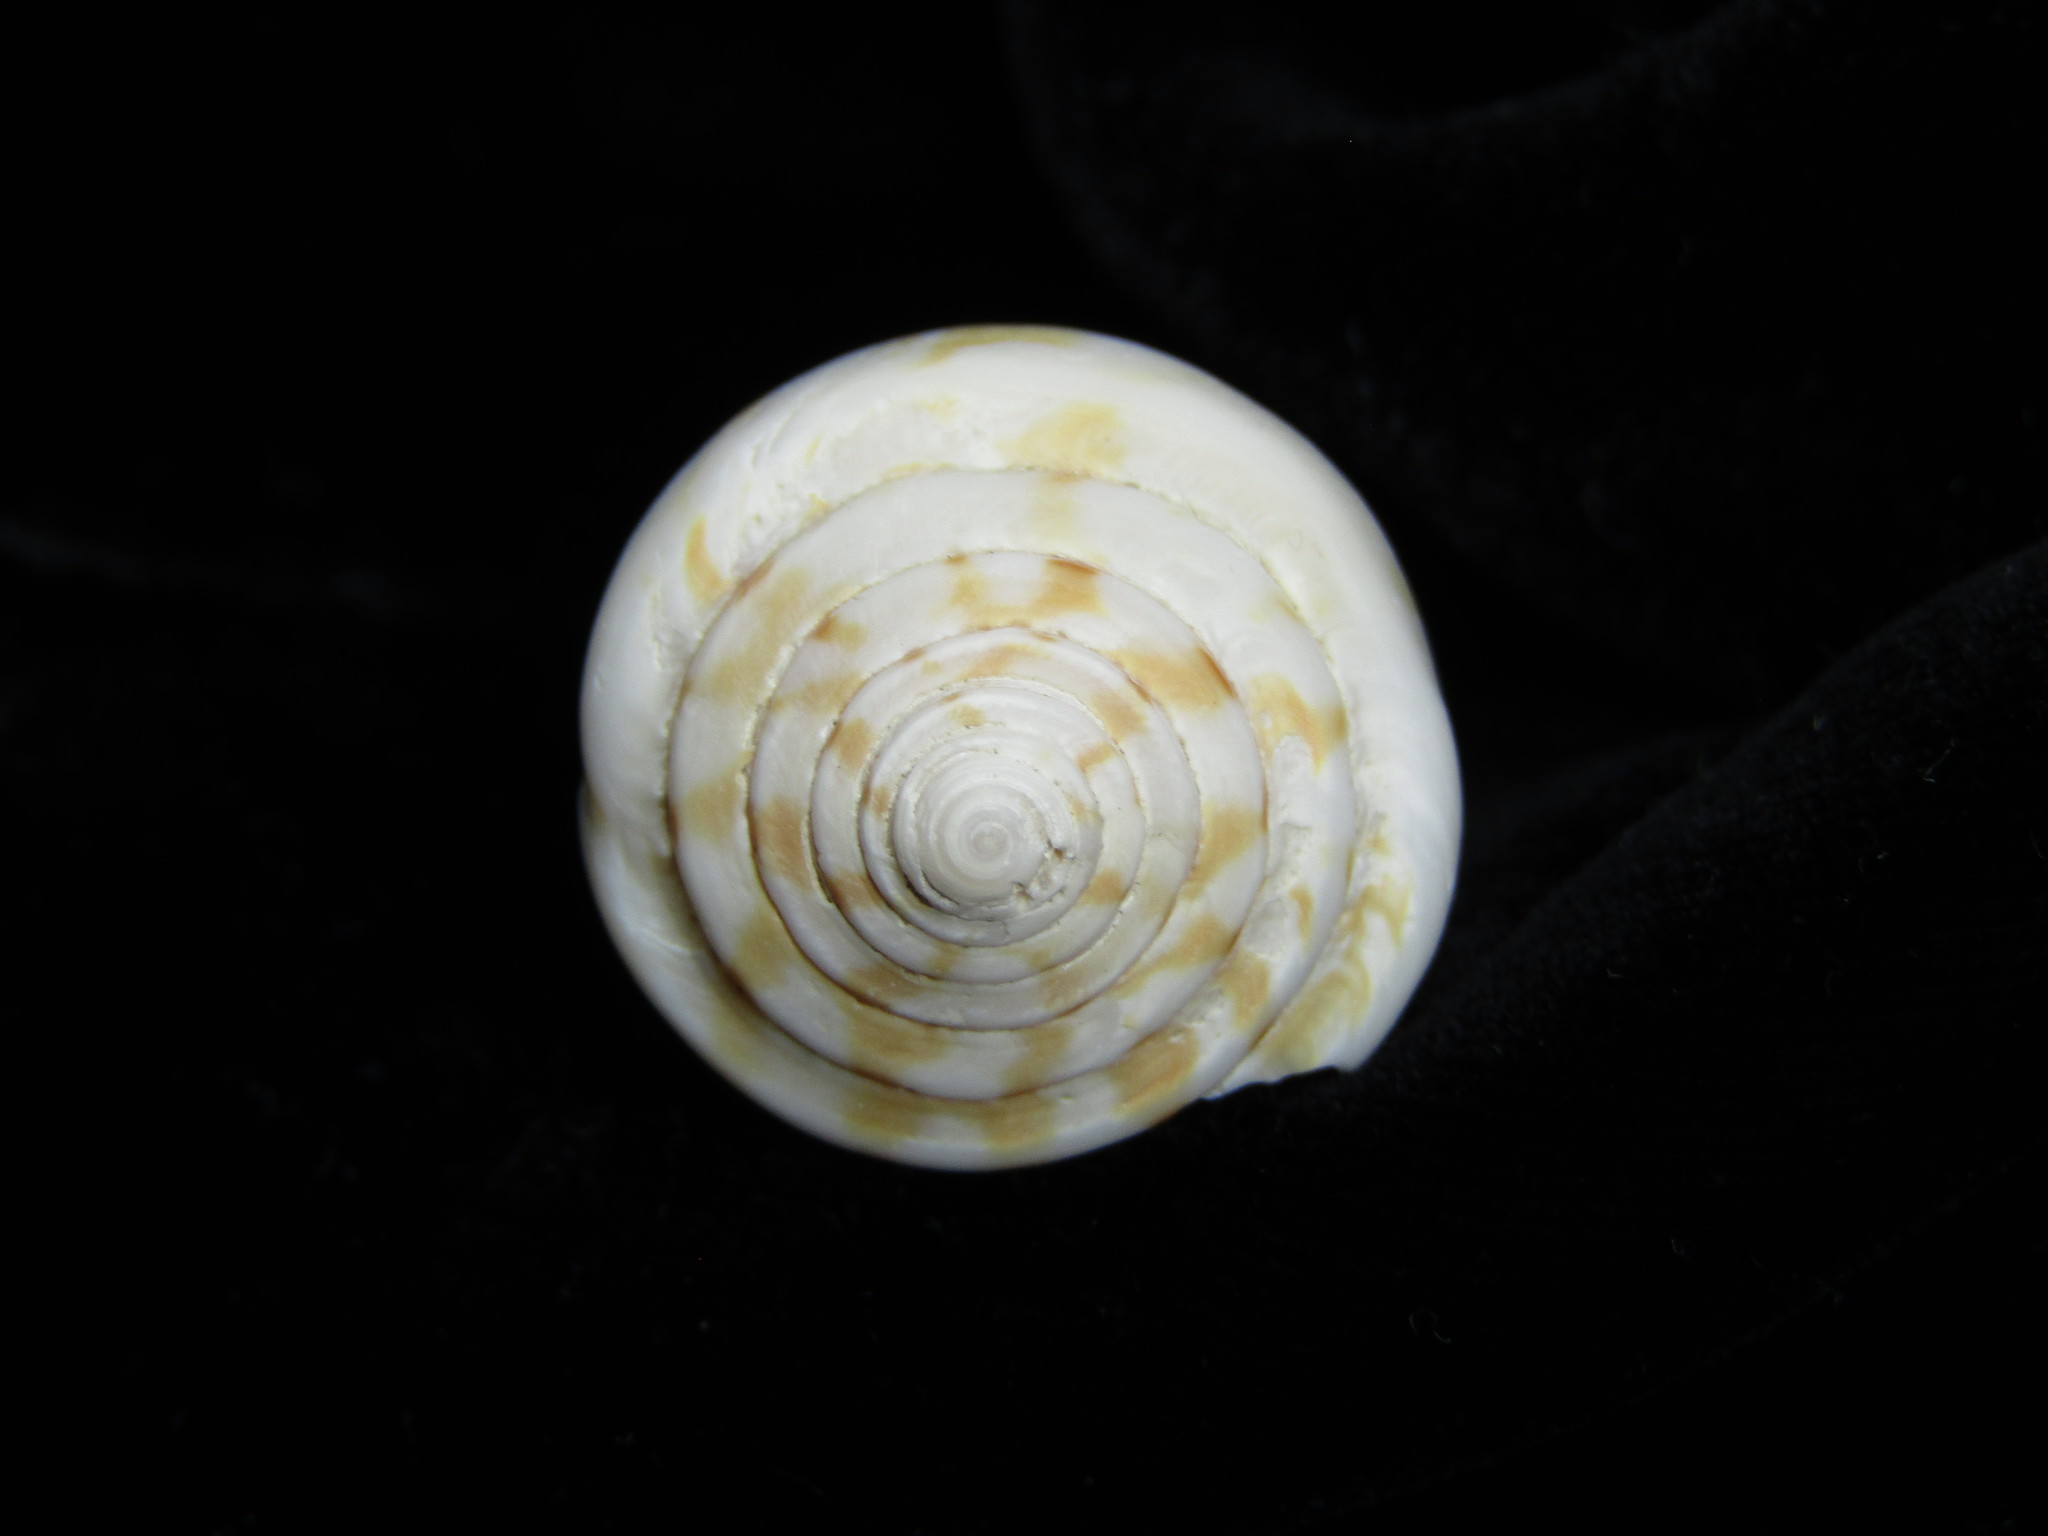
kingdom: Animalia
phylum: Mollusca
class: Gastropoda
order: Neogastropoda
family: Conidae
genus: Conus
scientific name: Conus lischkeanus
